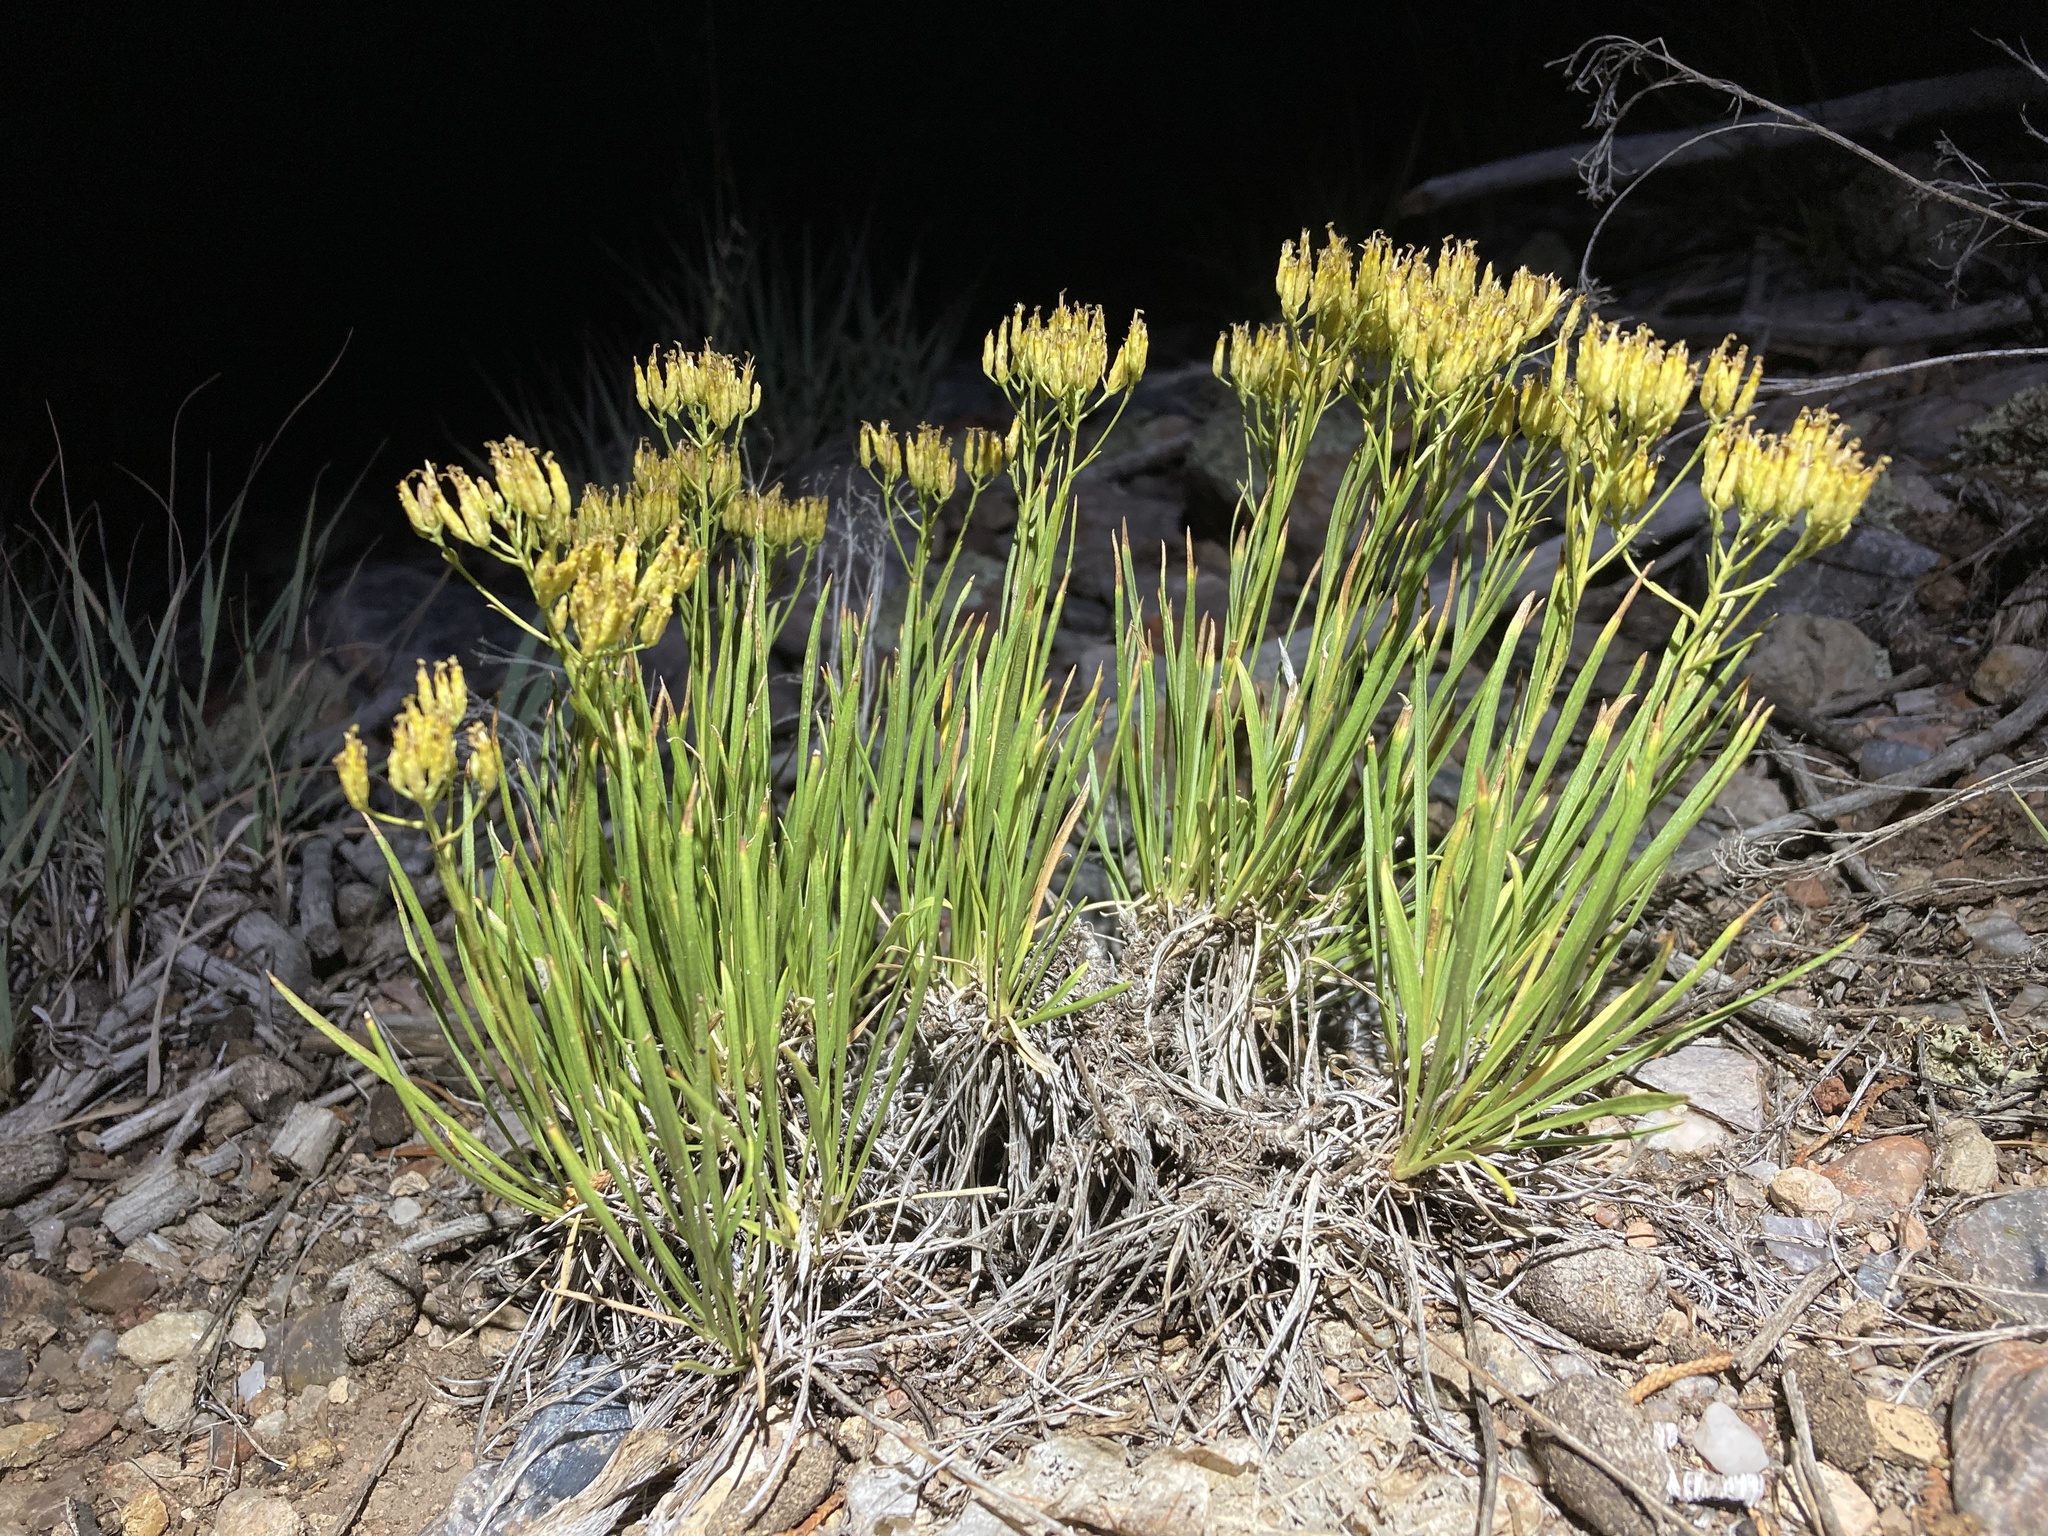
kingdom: Plantae
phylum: Tracheophyta
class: Magnoliopsida
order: Asterales
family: Asteraceae
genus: Petradoria
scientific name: Petradoria pumila
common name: Rock-goldenrod
